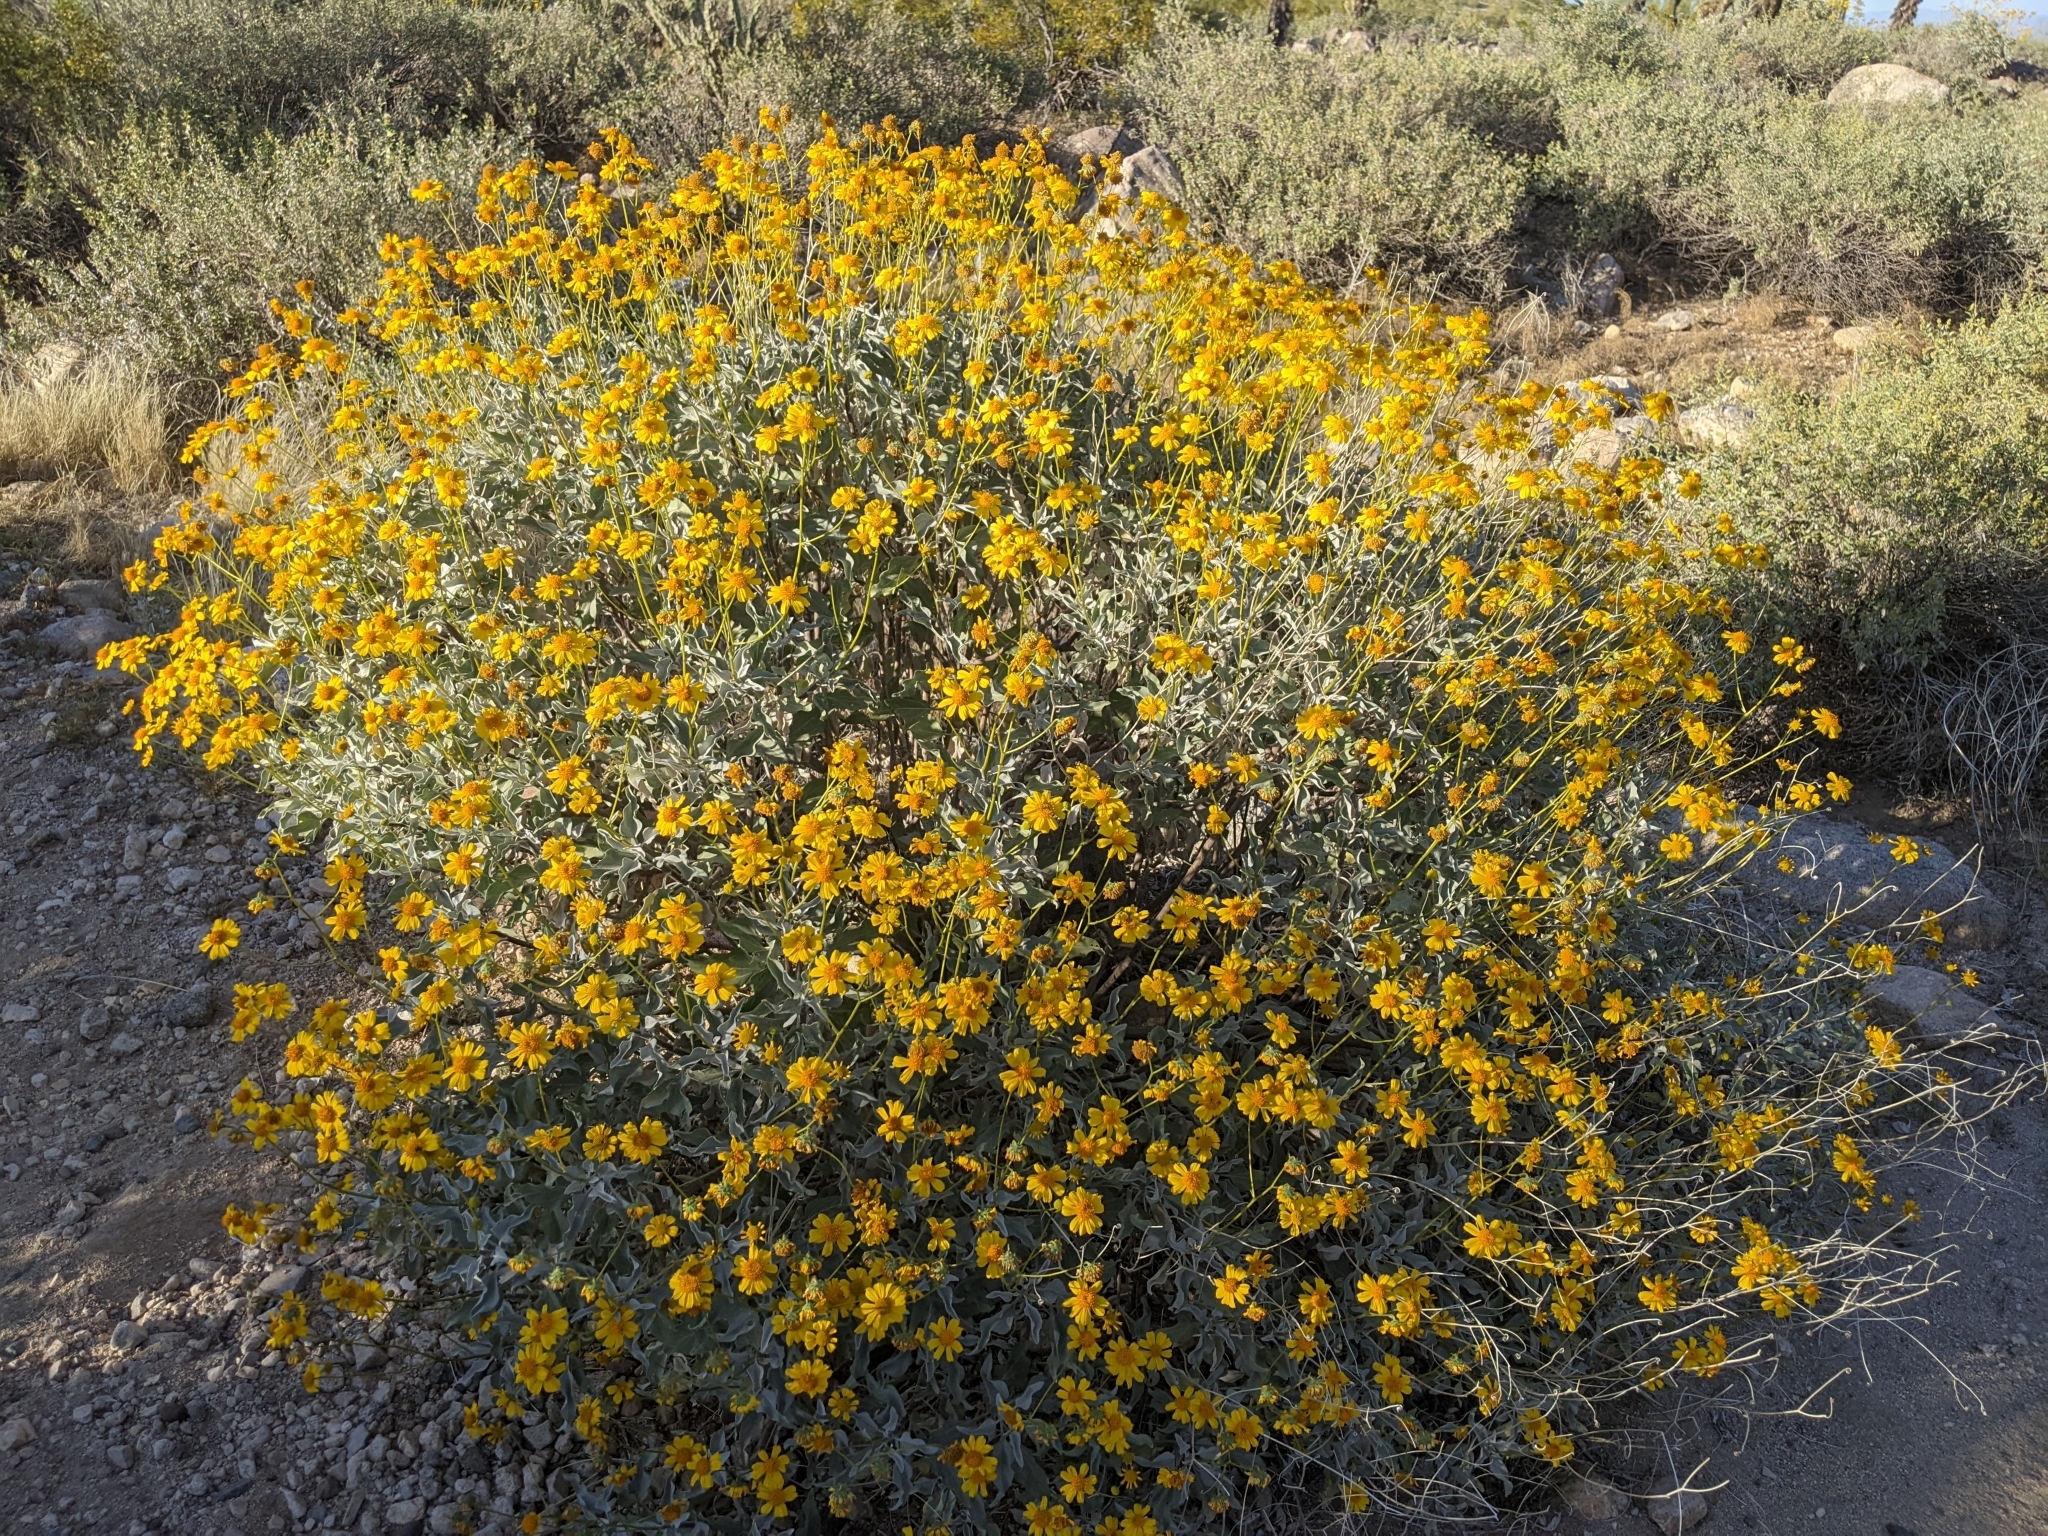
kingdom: Plantae
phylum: Tracheophyta
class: Magnoliopsida
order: Asterales
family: Asteraceae
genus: Encelia
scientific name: Encelia farinosa
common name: Brittlebush
